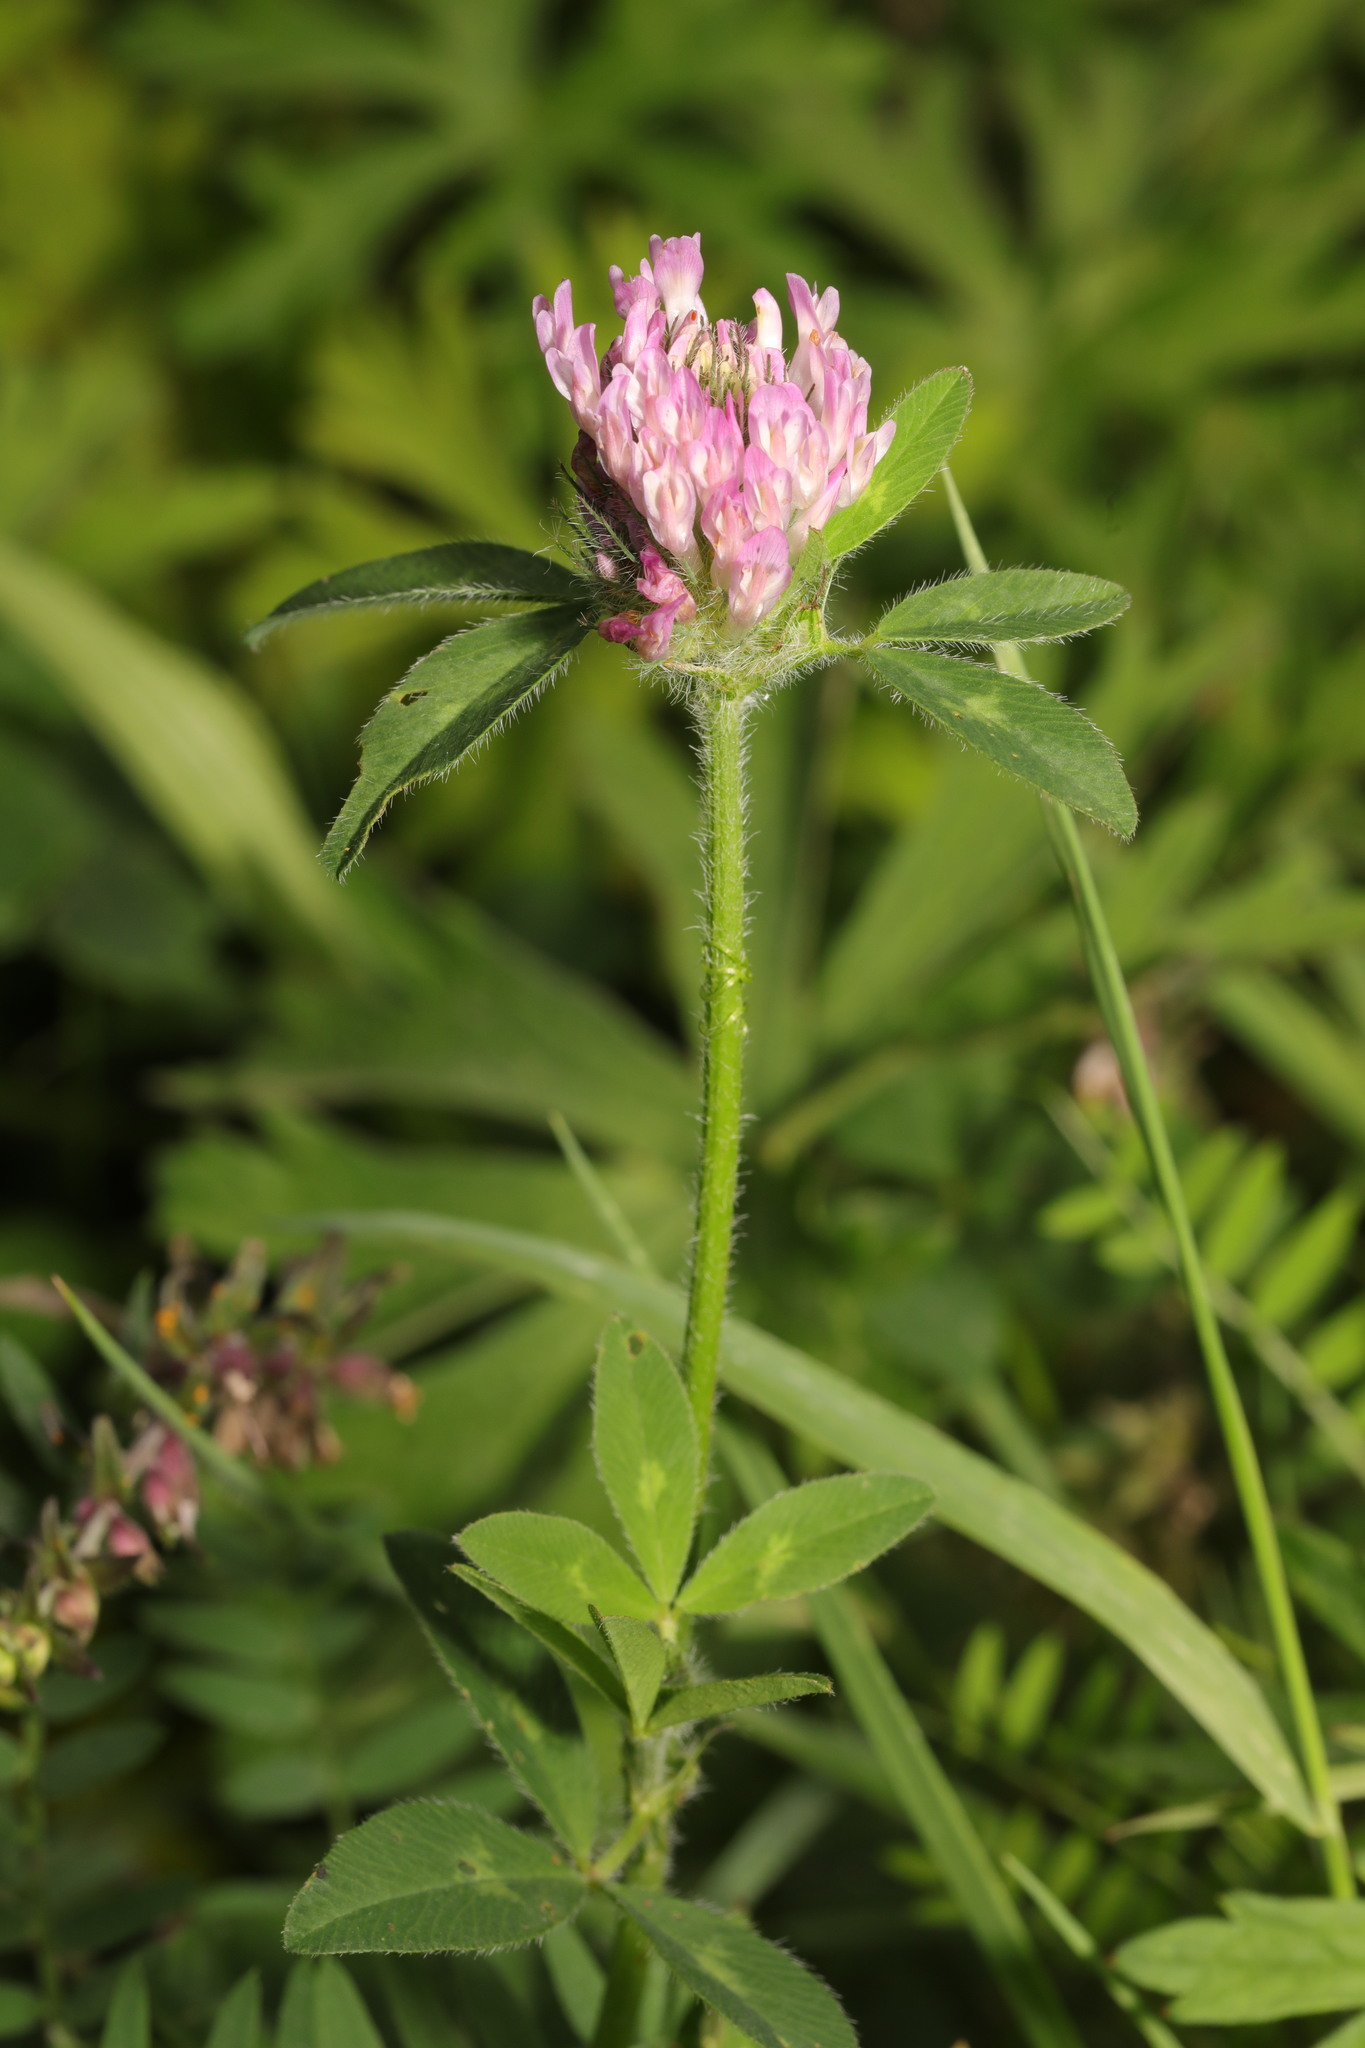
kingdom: Plantae
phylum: Tracheophyta
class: Magnoliopsida
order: Fabales
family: Fabaceae
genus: Trifolium
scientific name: Trifolium pratense
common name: Red clover
